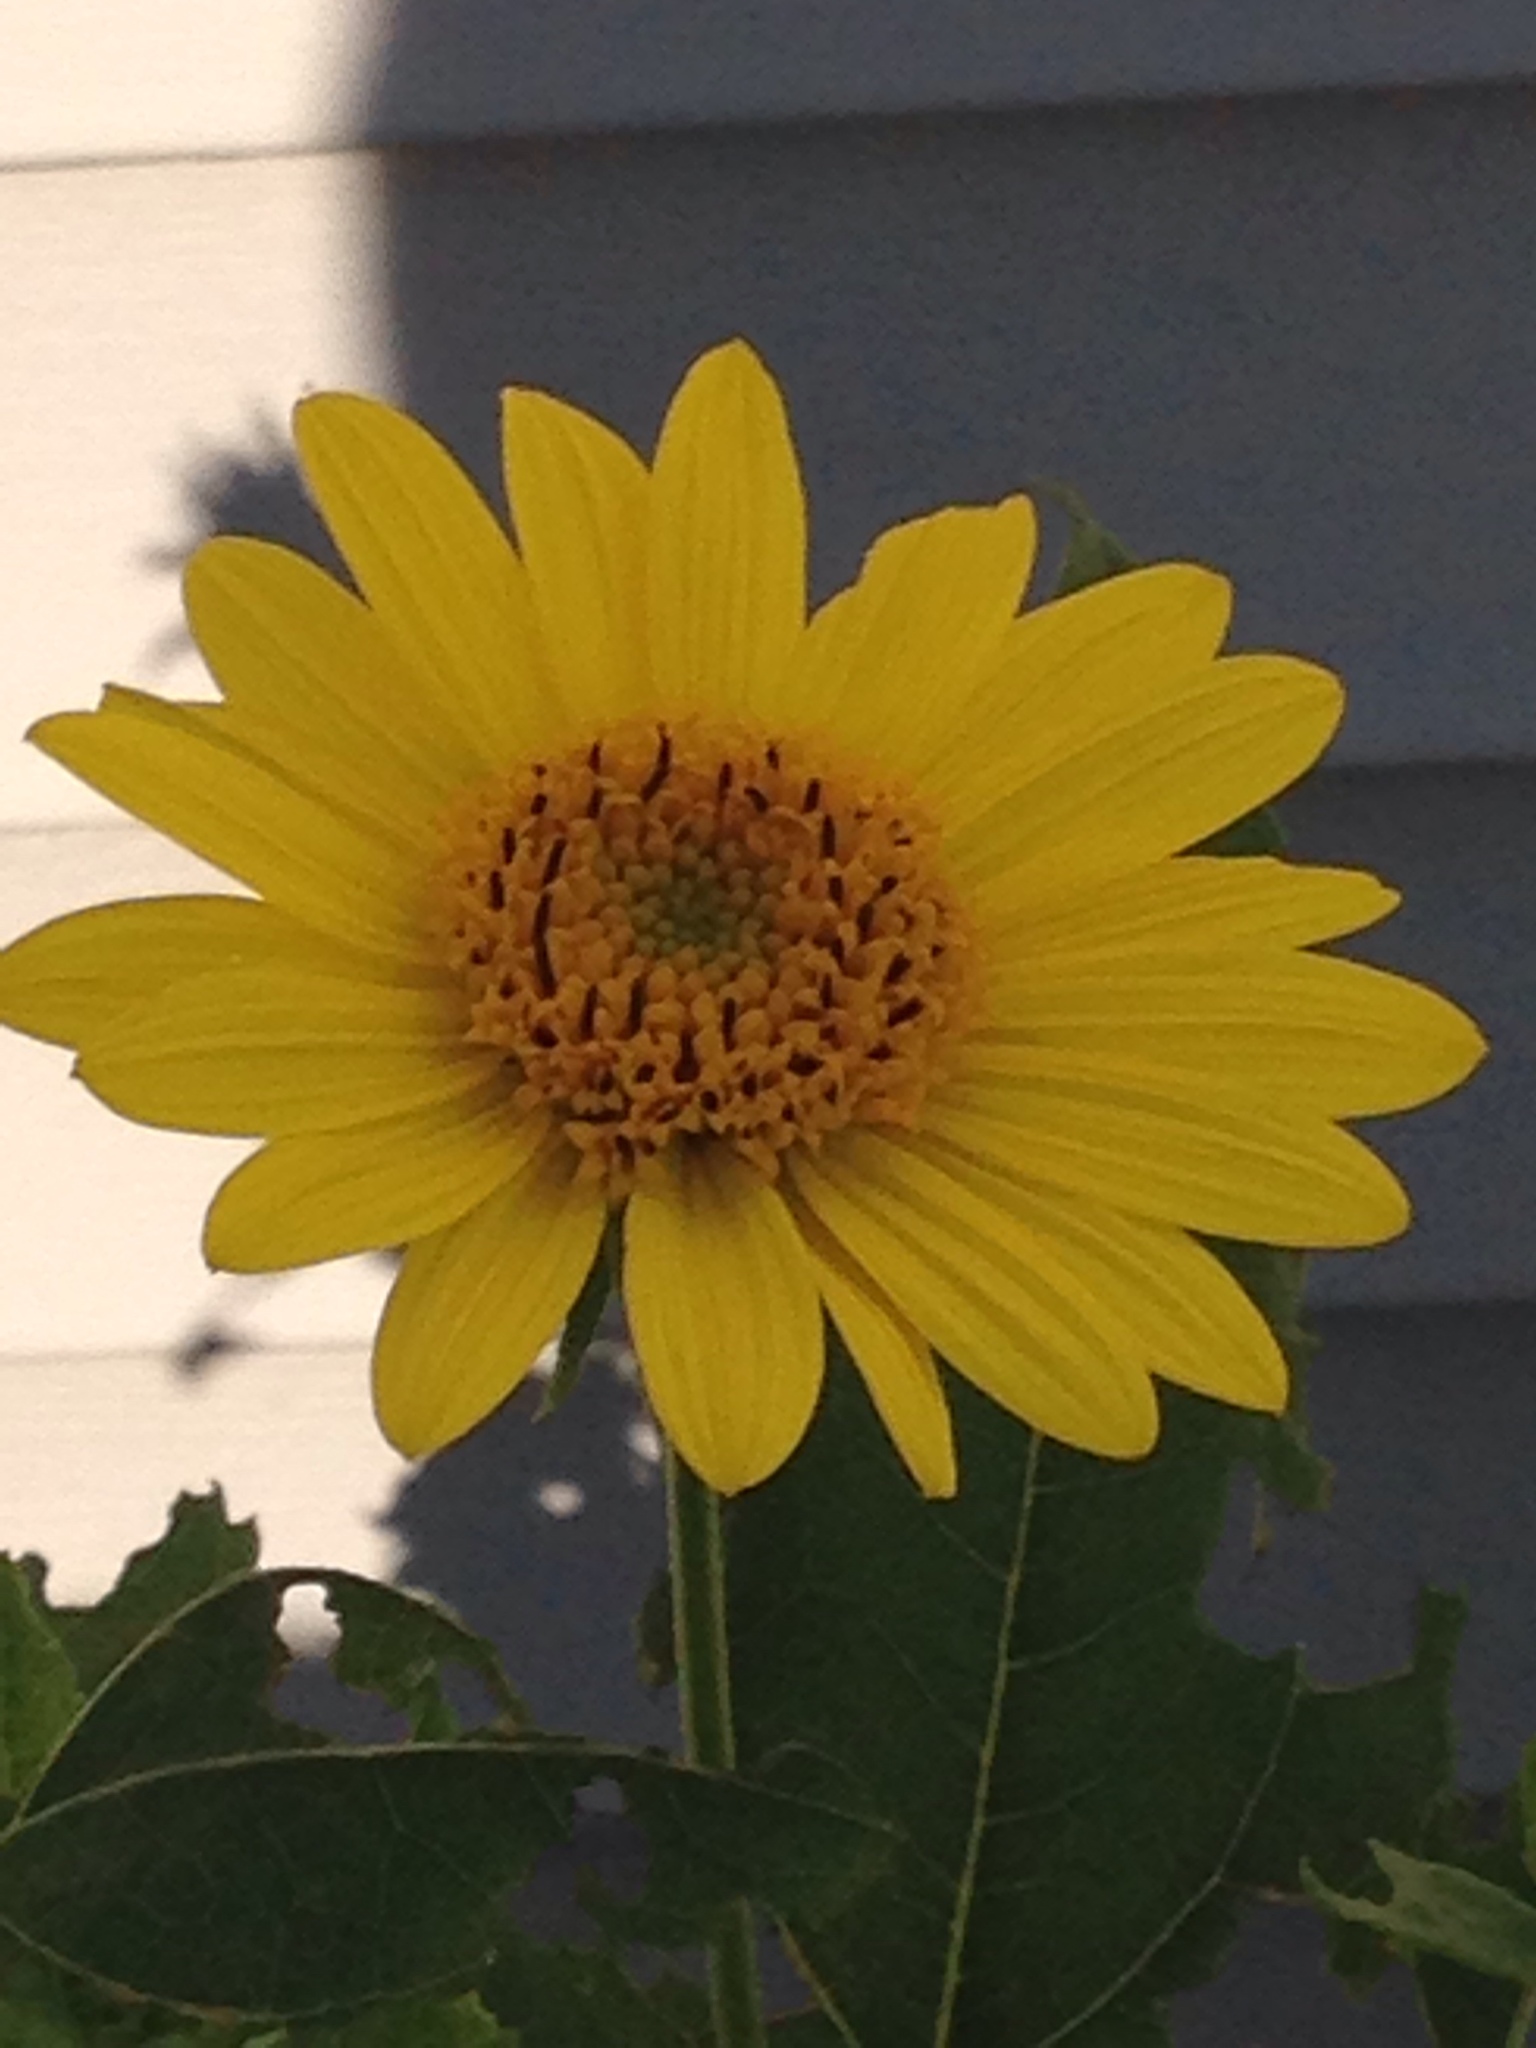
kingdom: Plantae
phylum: Tracheophyta
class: Magnoliopsida
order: Asterales
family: Asteraceae
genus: Helianthus
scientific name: Helianthus annuus
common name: Sunflower
